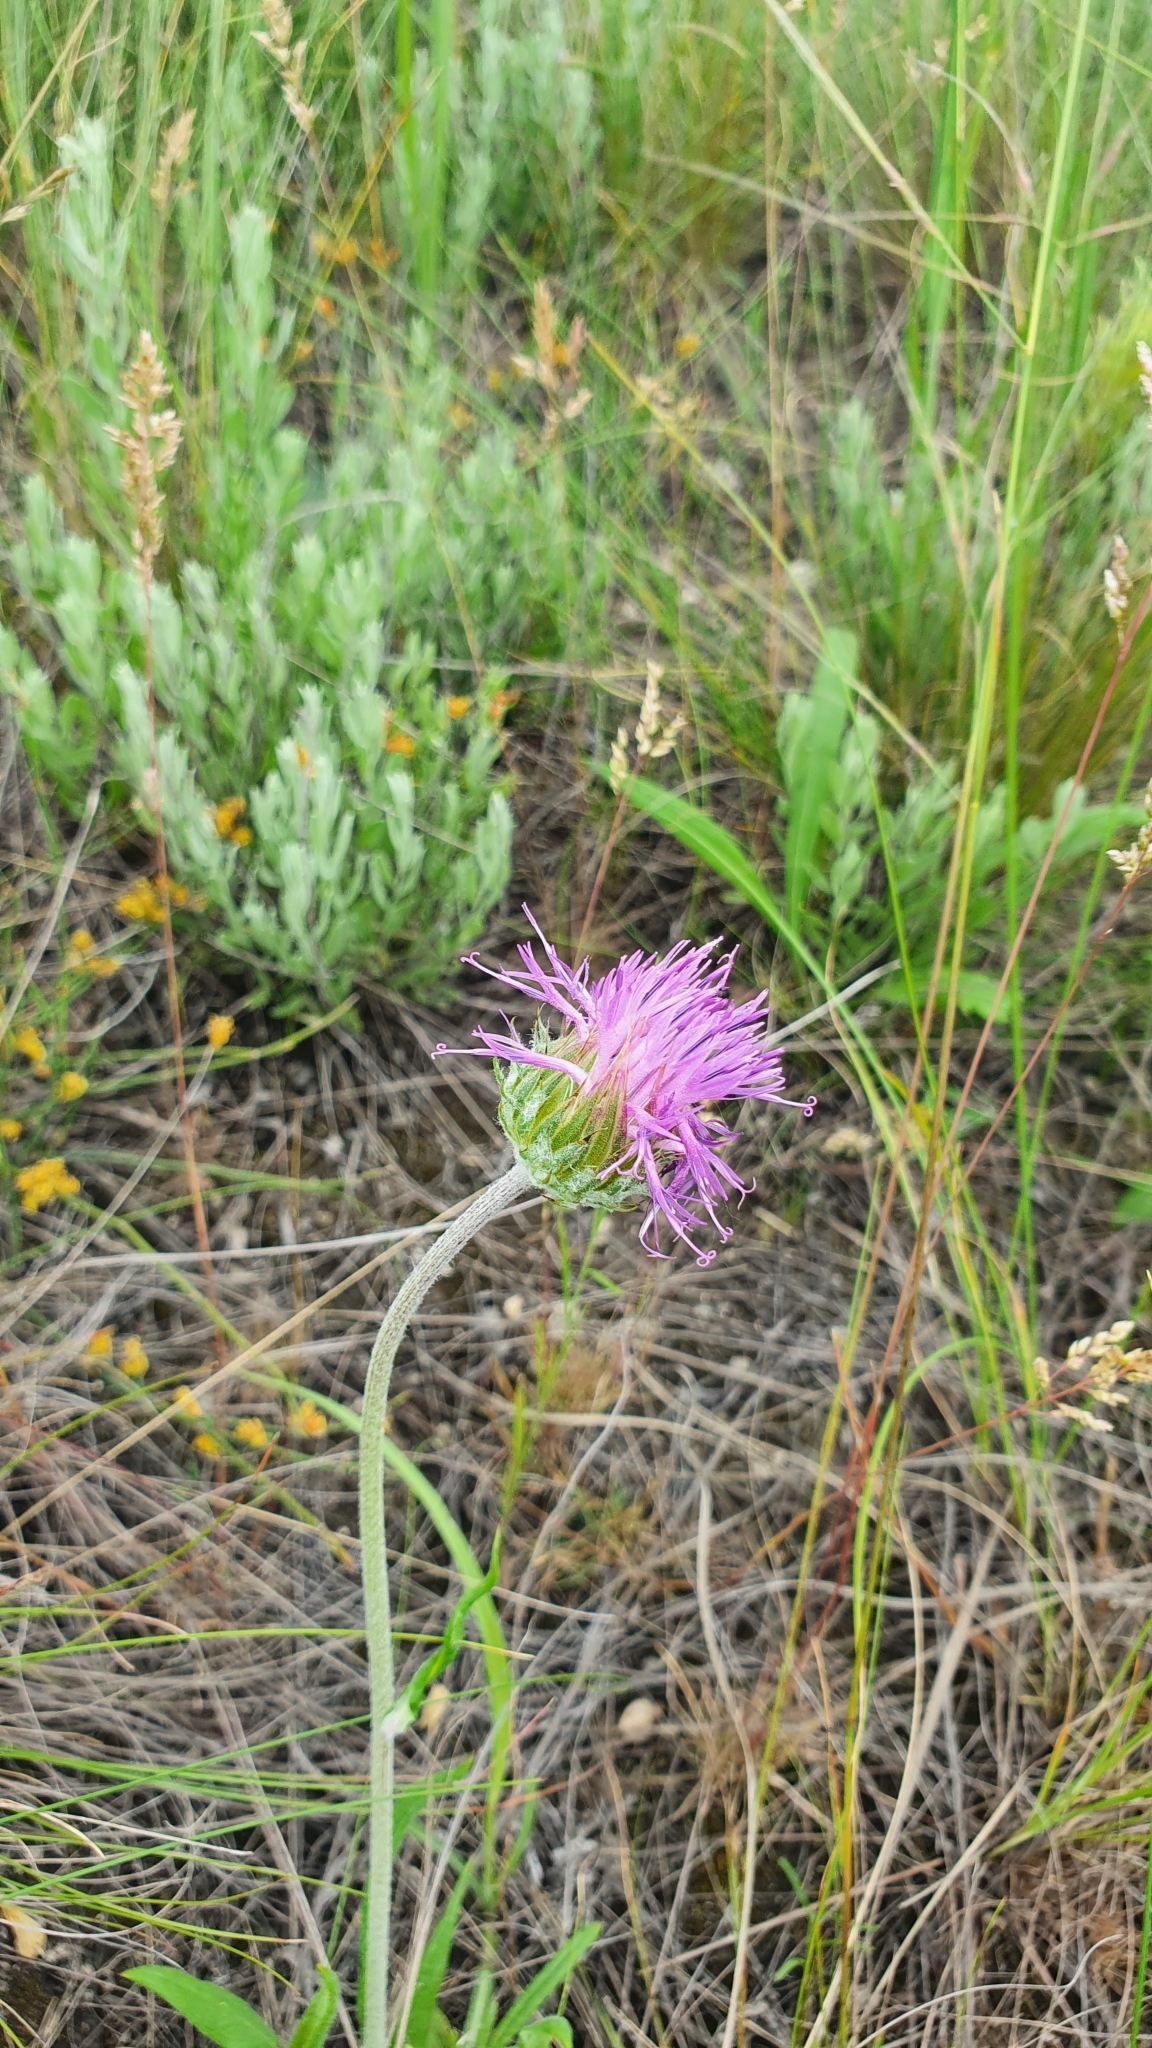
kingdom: Plantae
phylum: Tracheophyta
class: Magnoliopsida
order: Asterales
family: Asteraceae
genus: Jurinea
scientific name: Jurinea ledebourii
